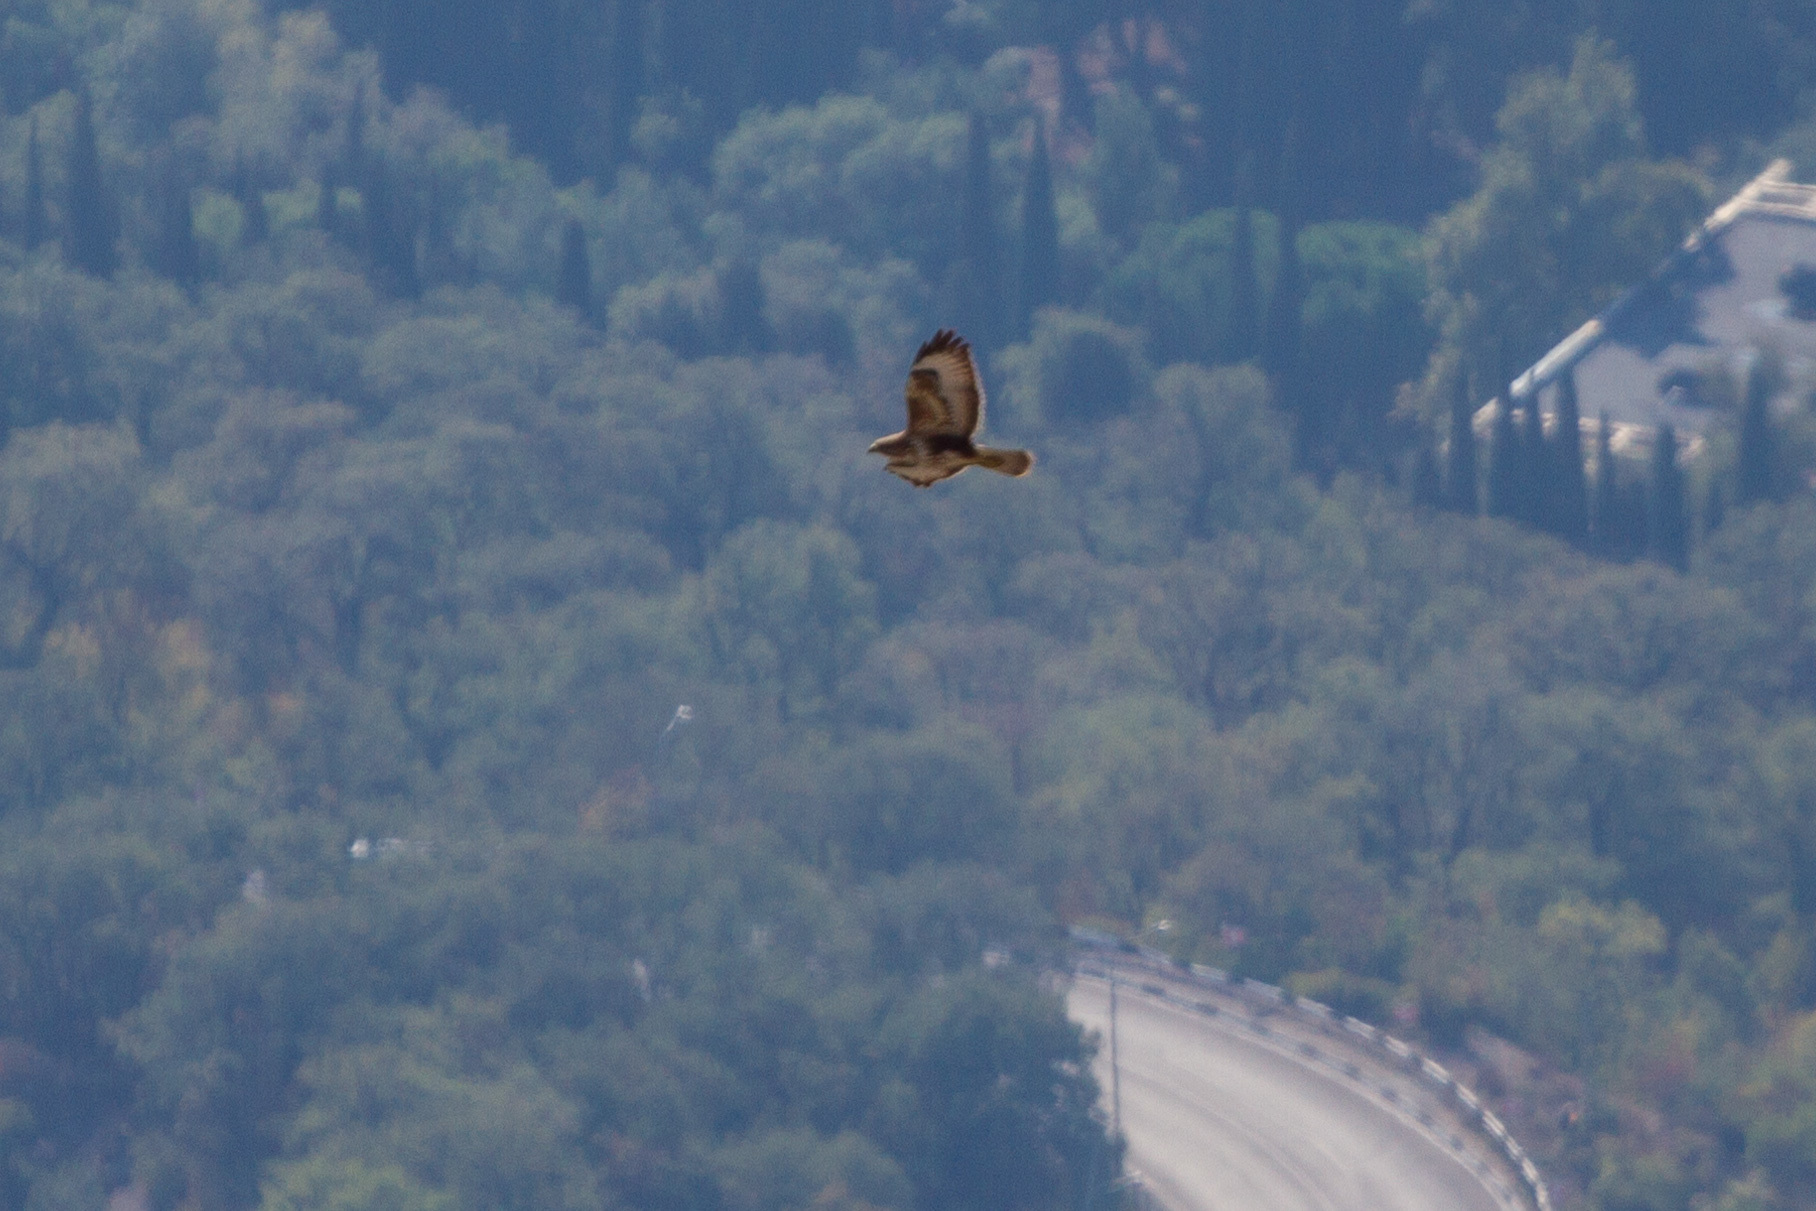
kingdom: Animalia
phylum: Chordata
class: Aves
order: Accipitriformes
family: Accipitridae
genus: Buteo
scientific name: Buteo buteo
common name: Common buzzard
